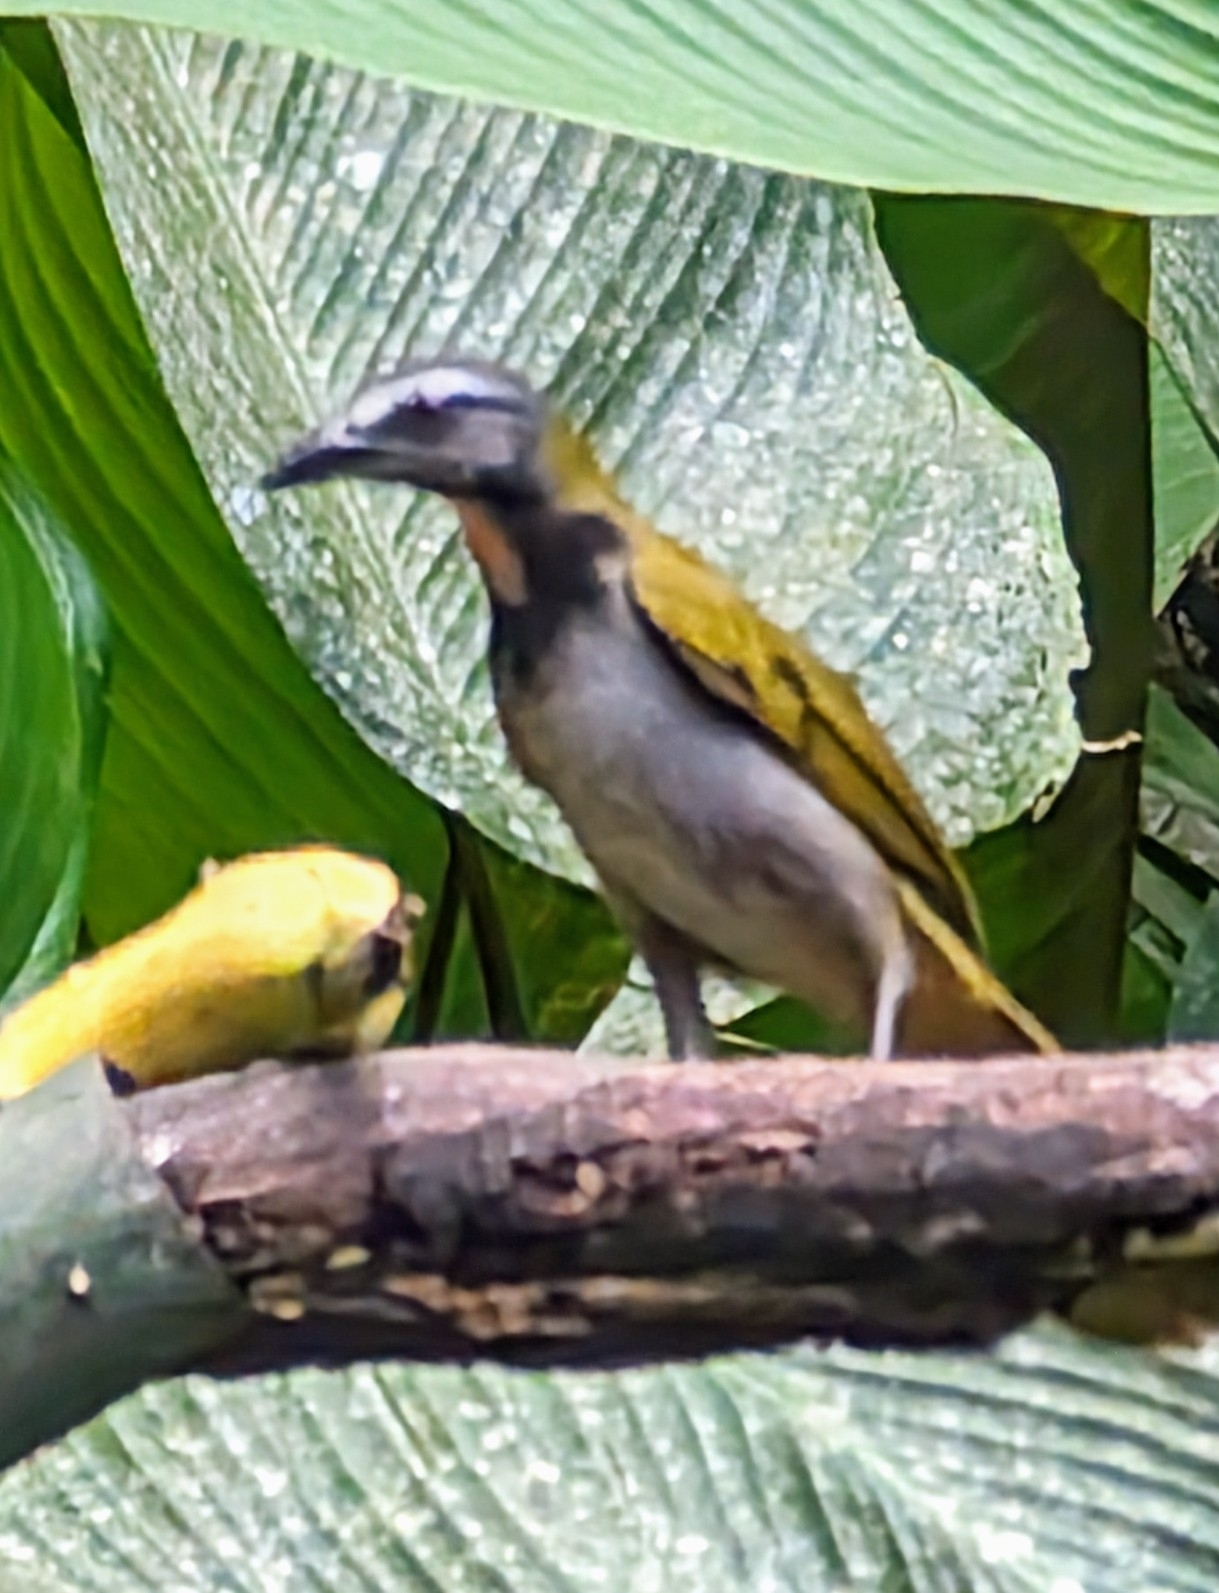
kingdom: Animalia
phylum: Chordata
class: Aves
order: Passeriformes
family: Thraupidae
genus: Saltator
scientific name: Saltator maximus
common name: Buff-throated saltator
